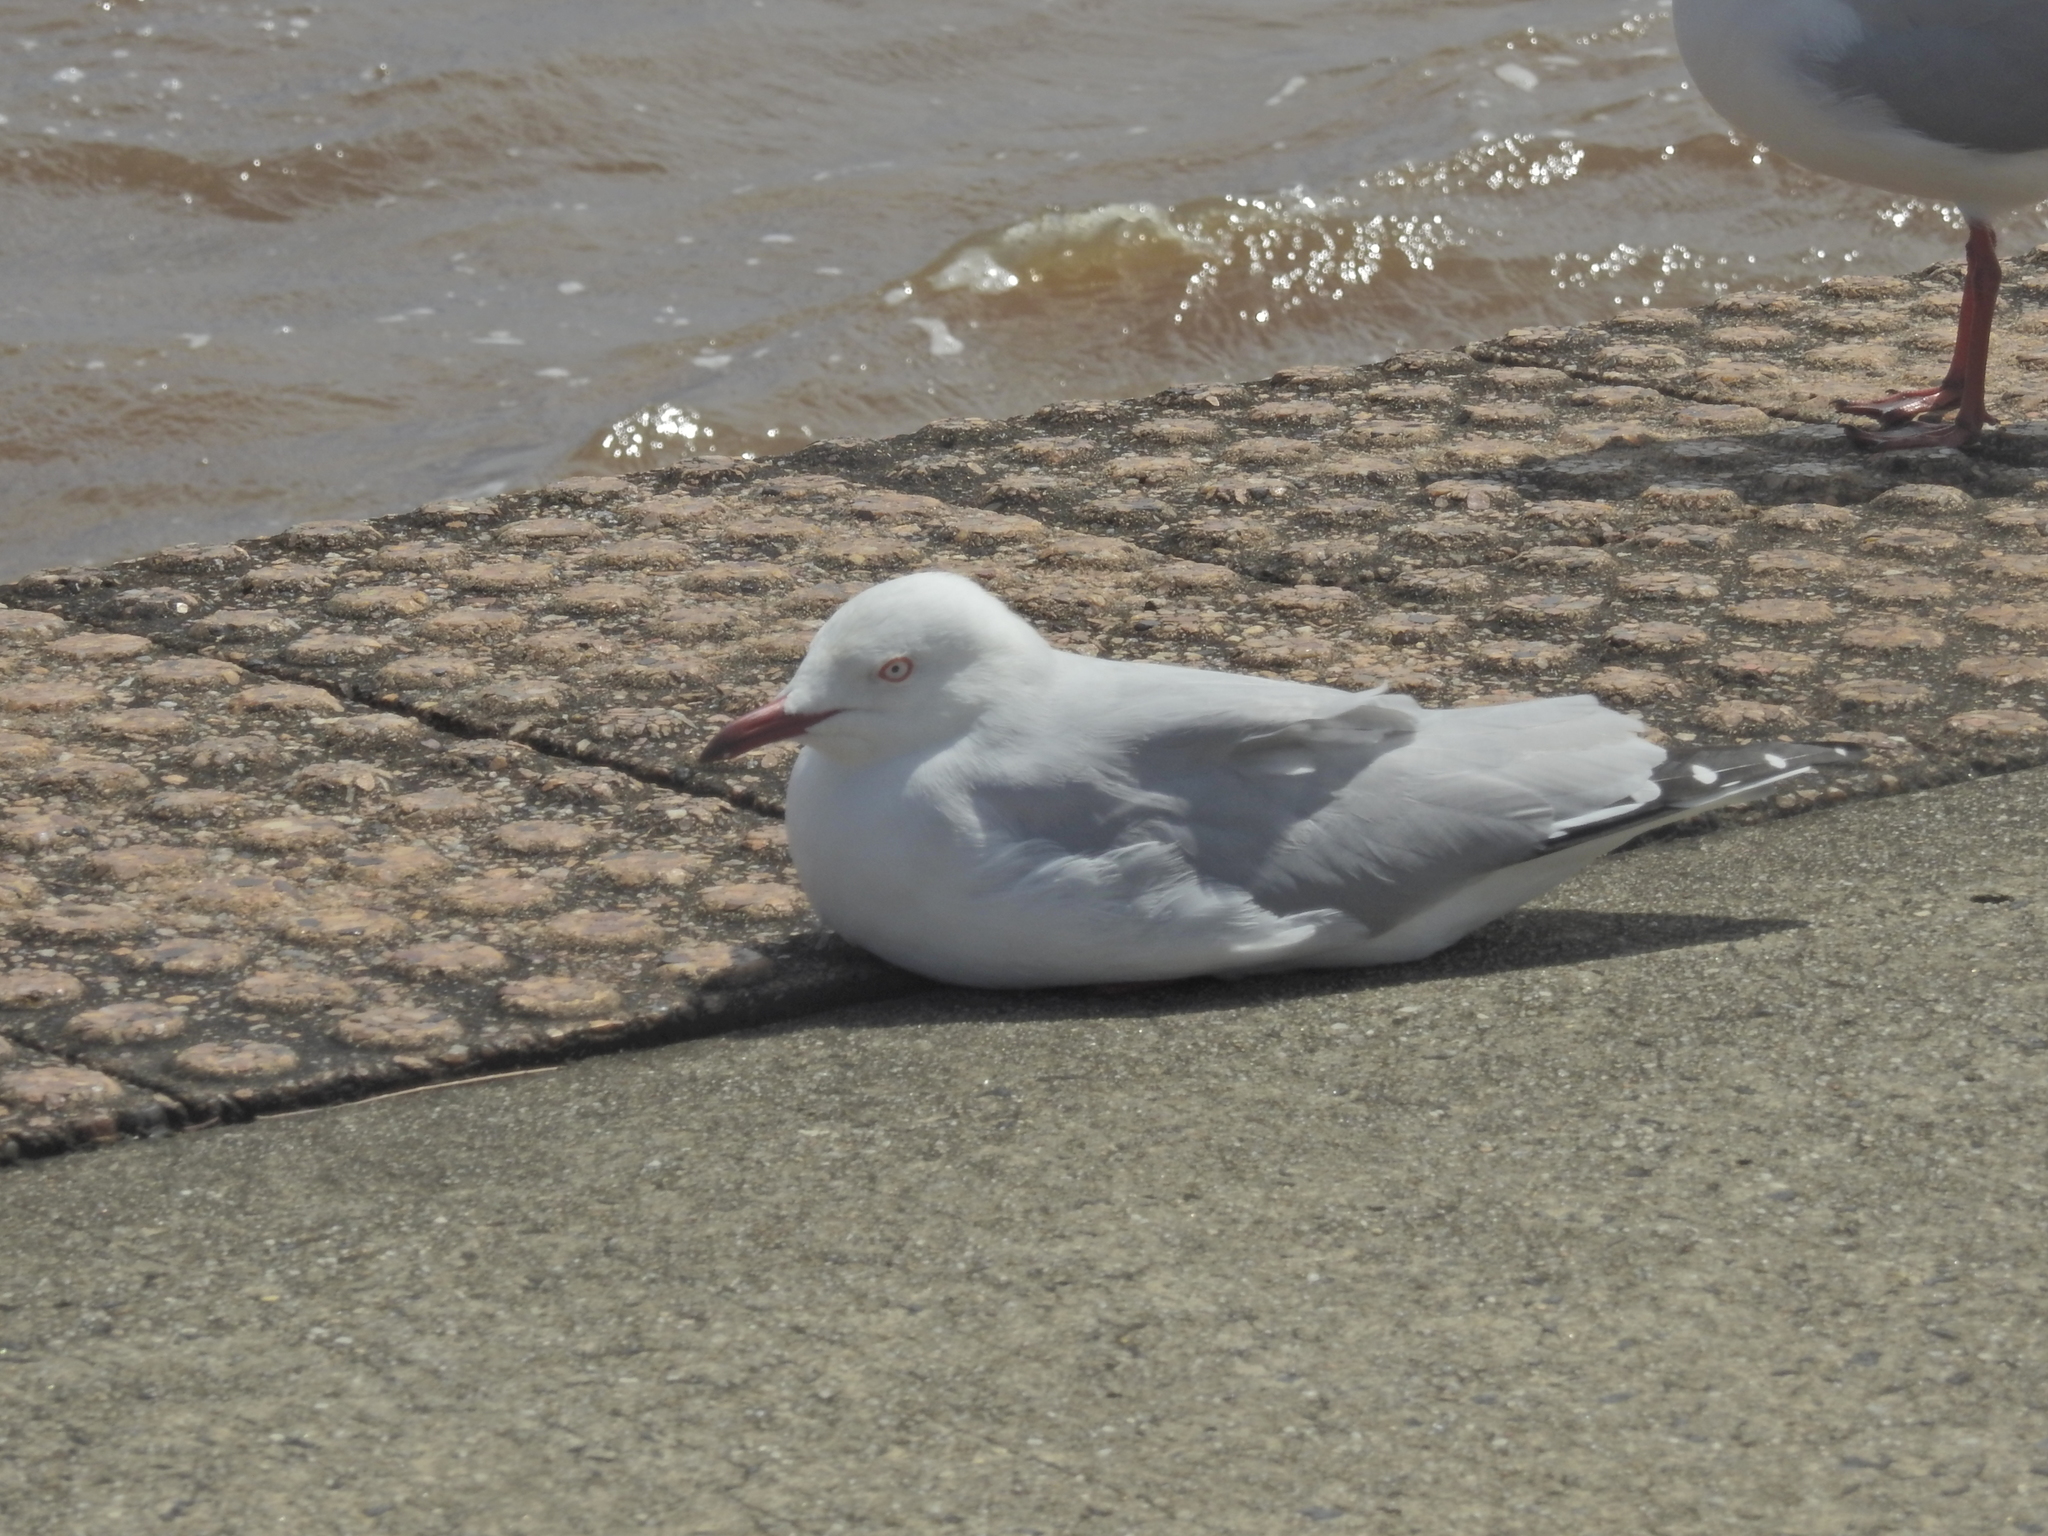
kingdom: Animalia
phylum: Chordata
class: Aves
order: Charadriiformes
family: Laridae
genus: Chroicocephalus
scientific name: Chroicocephalus novaehollandiae
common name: Silver gull
